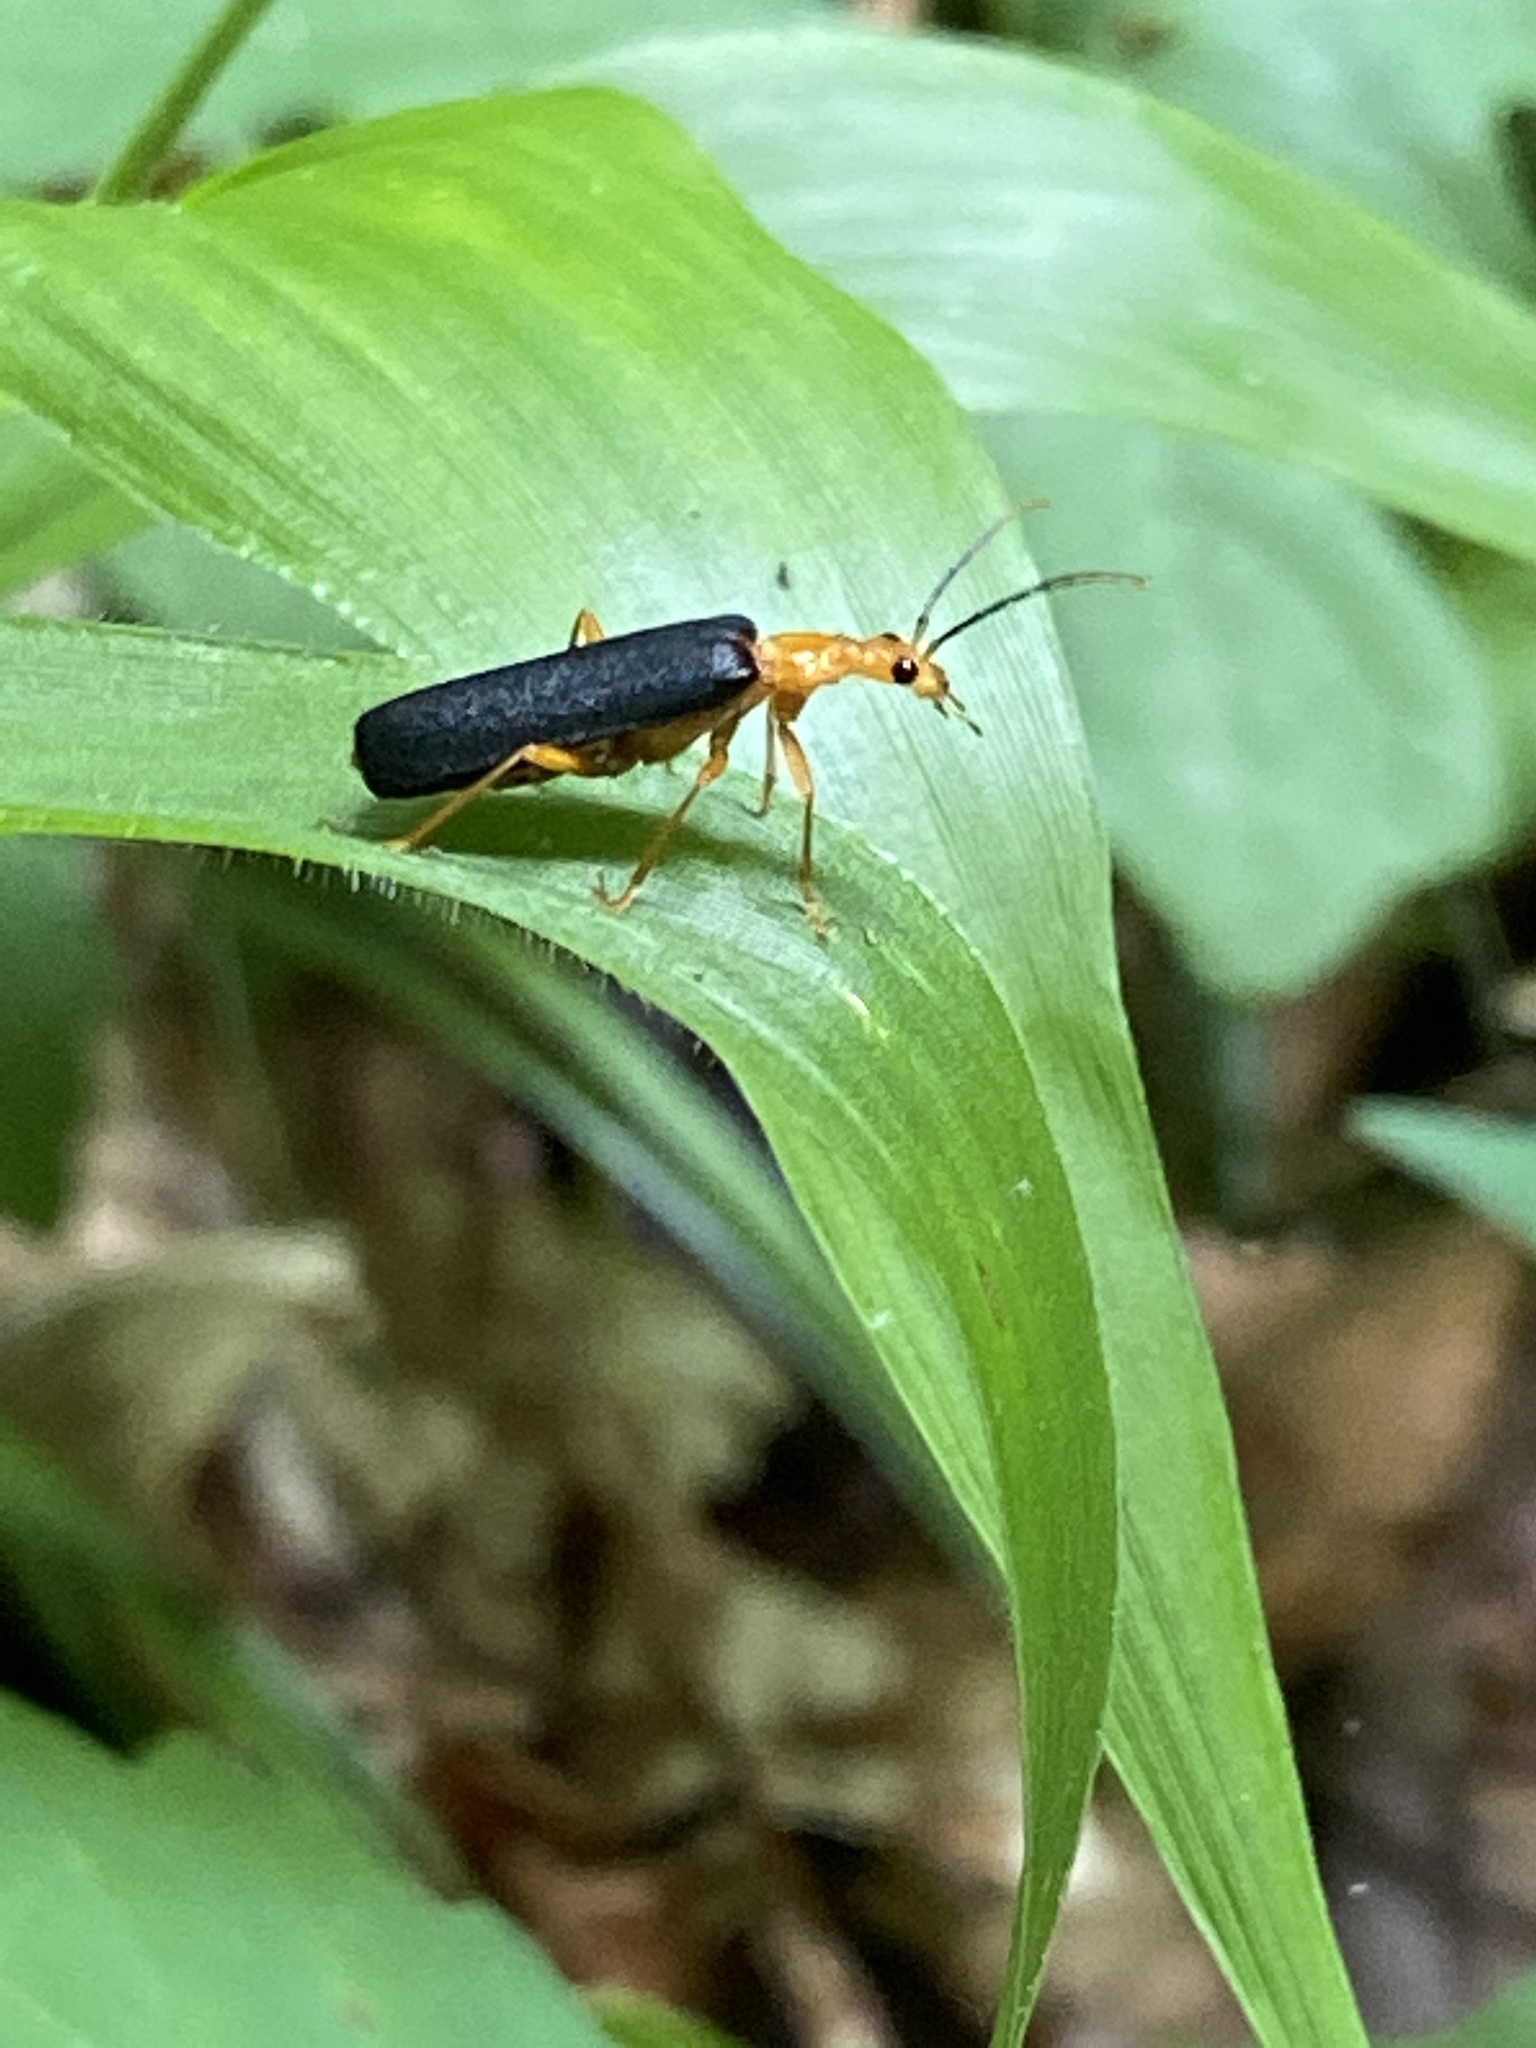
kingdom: Animalia
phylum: Arthropoda
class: Insecta
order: Coleoptera
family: Cantharidae
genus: Podabrus
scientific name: Podabrus fayi
